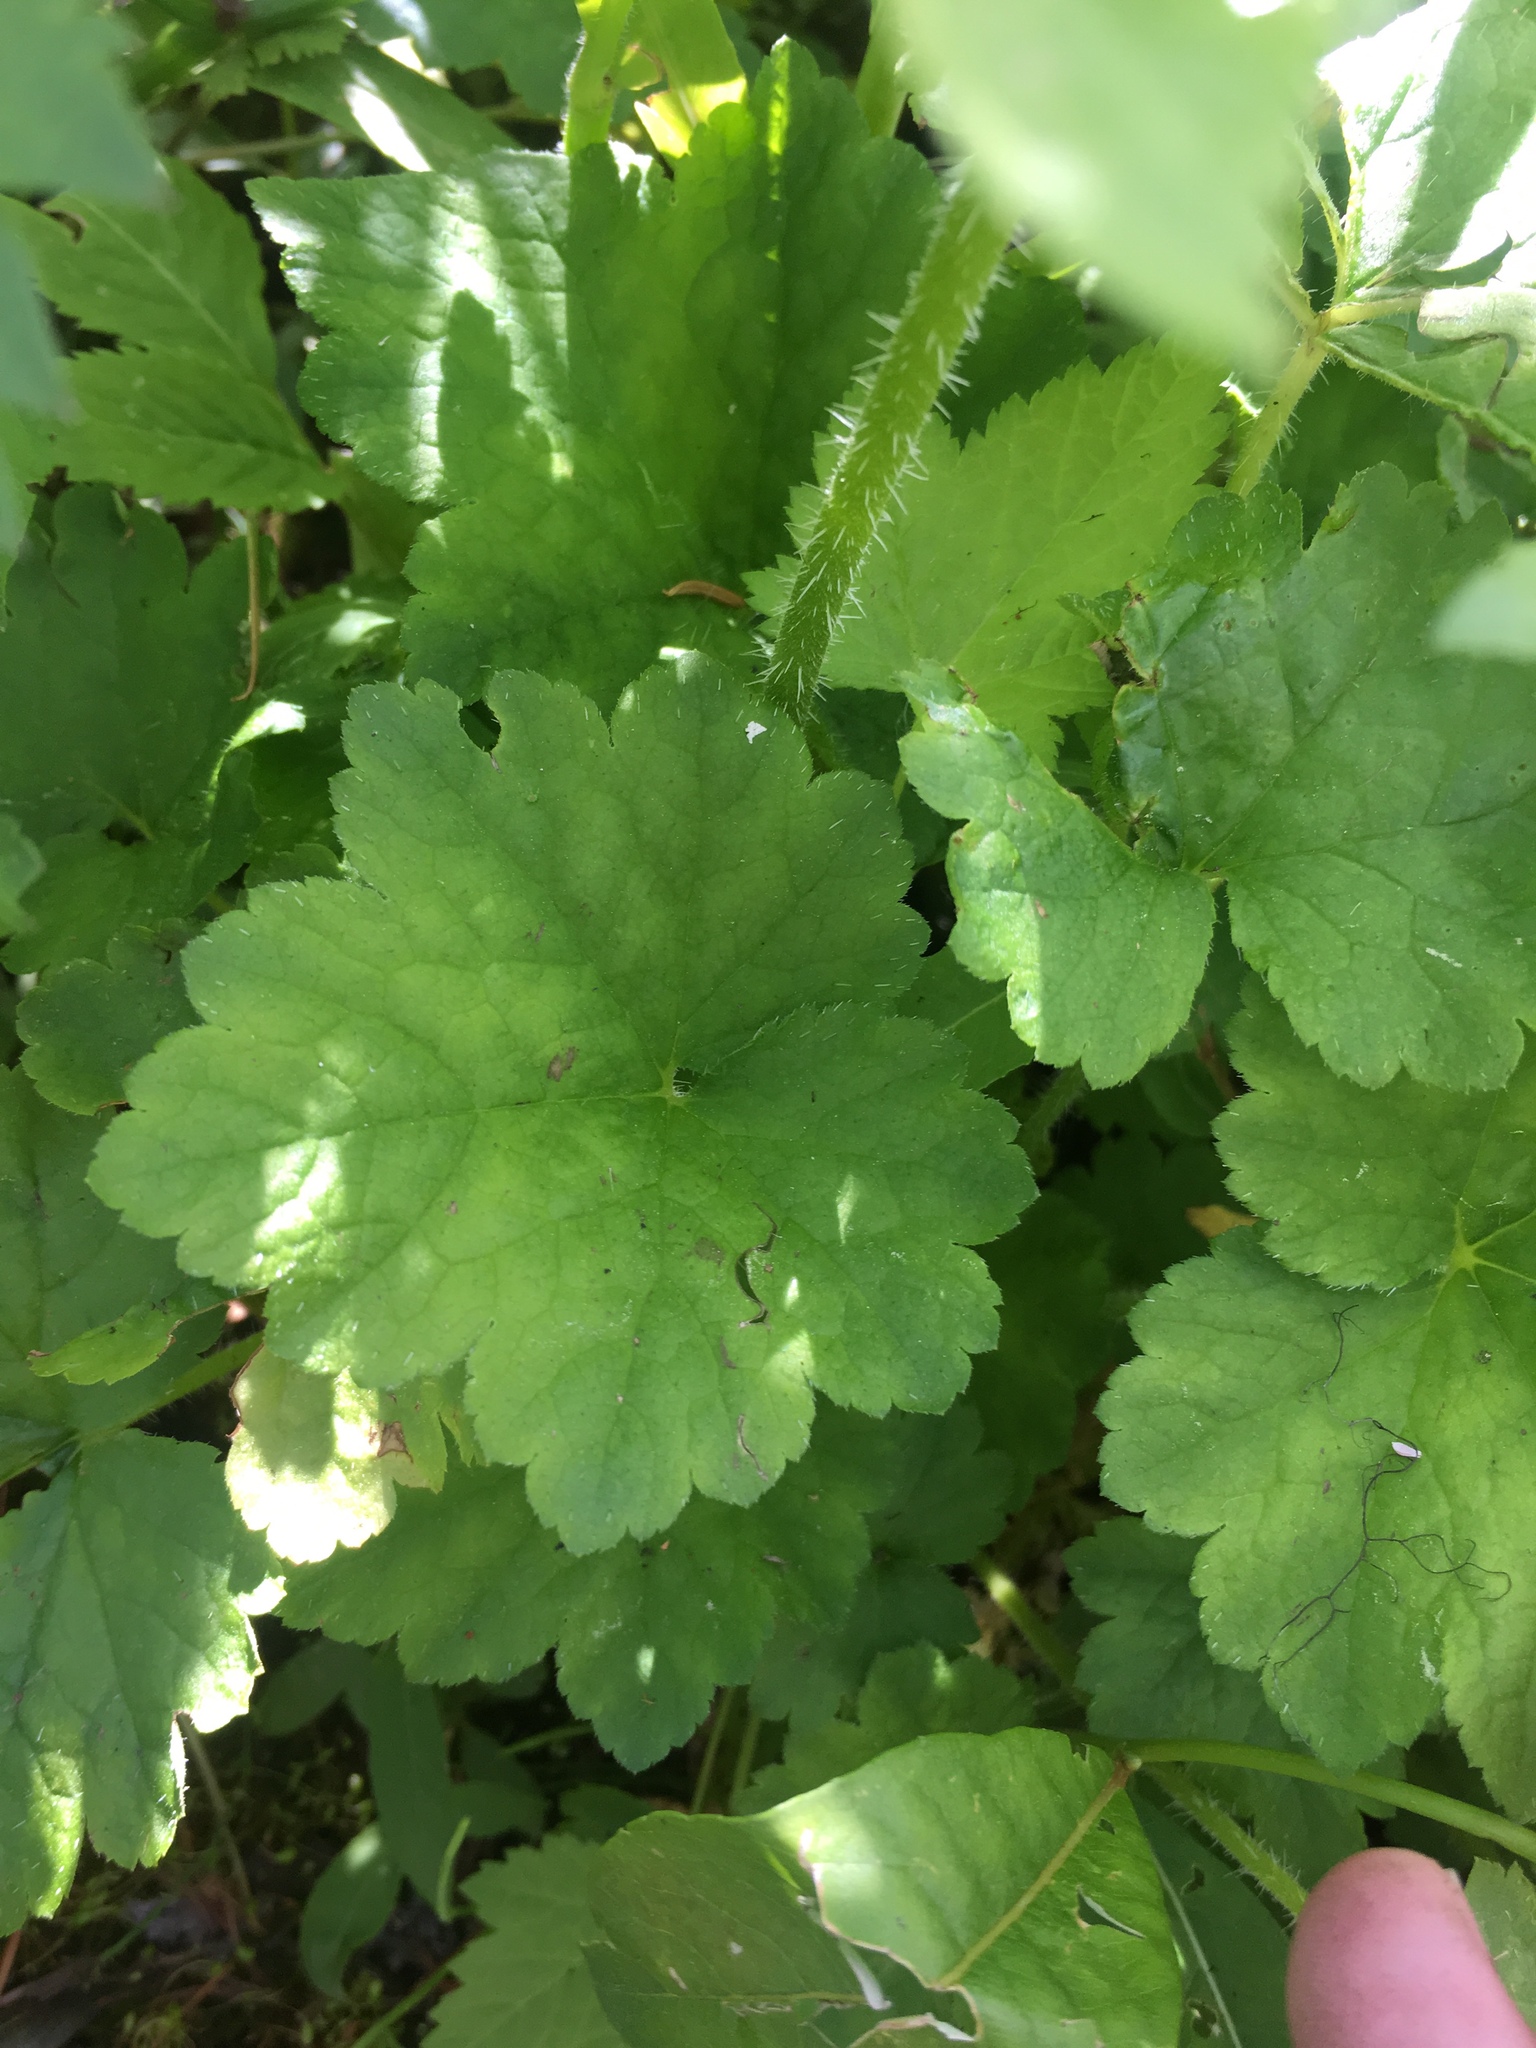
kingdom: Plantae
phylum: Tracheophyta
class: Magnoliopsida
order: Saxifragales
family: Saxifragaceae
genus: Tellima
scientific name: Tellima grandiflora
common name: Fringecups
